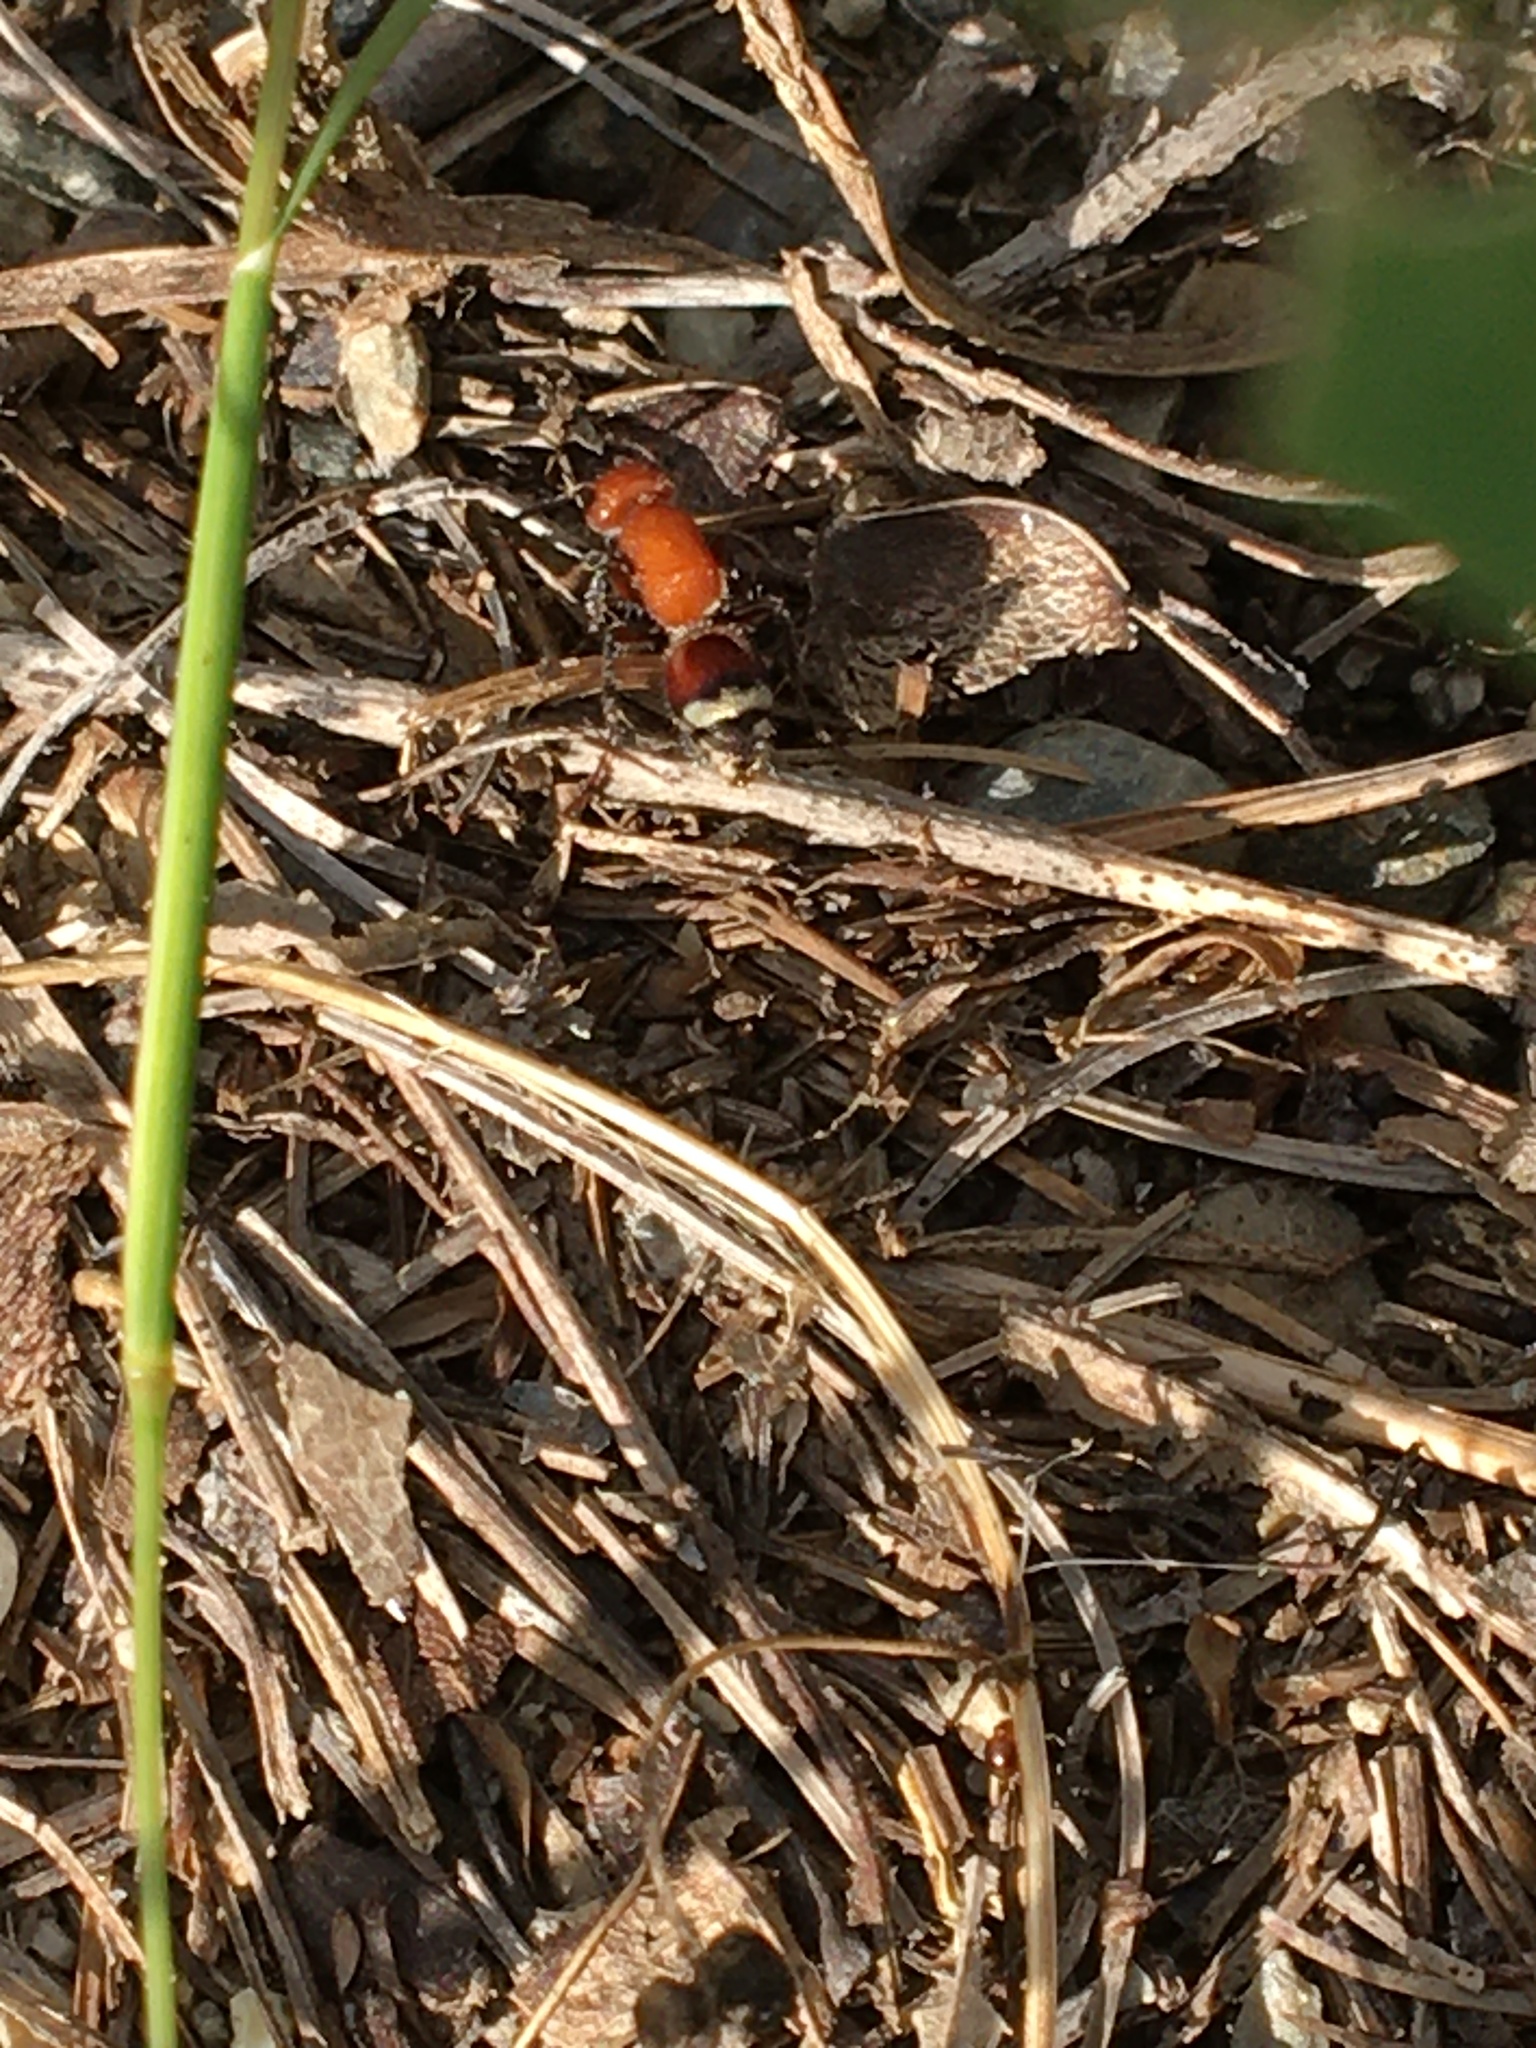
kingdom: Animalia
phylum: Arthropoda
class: Insecta
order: Hymenoptera
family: Mutillidae
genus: Timulla
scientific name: Timulla
